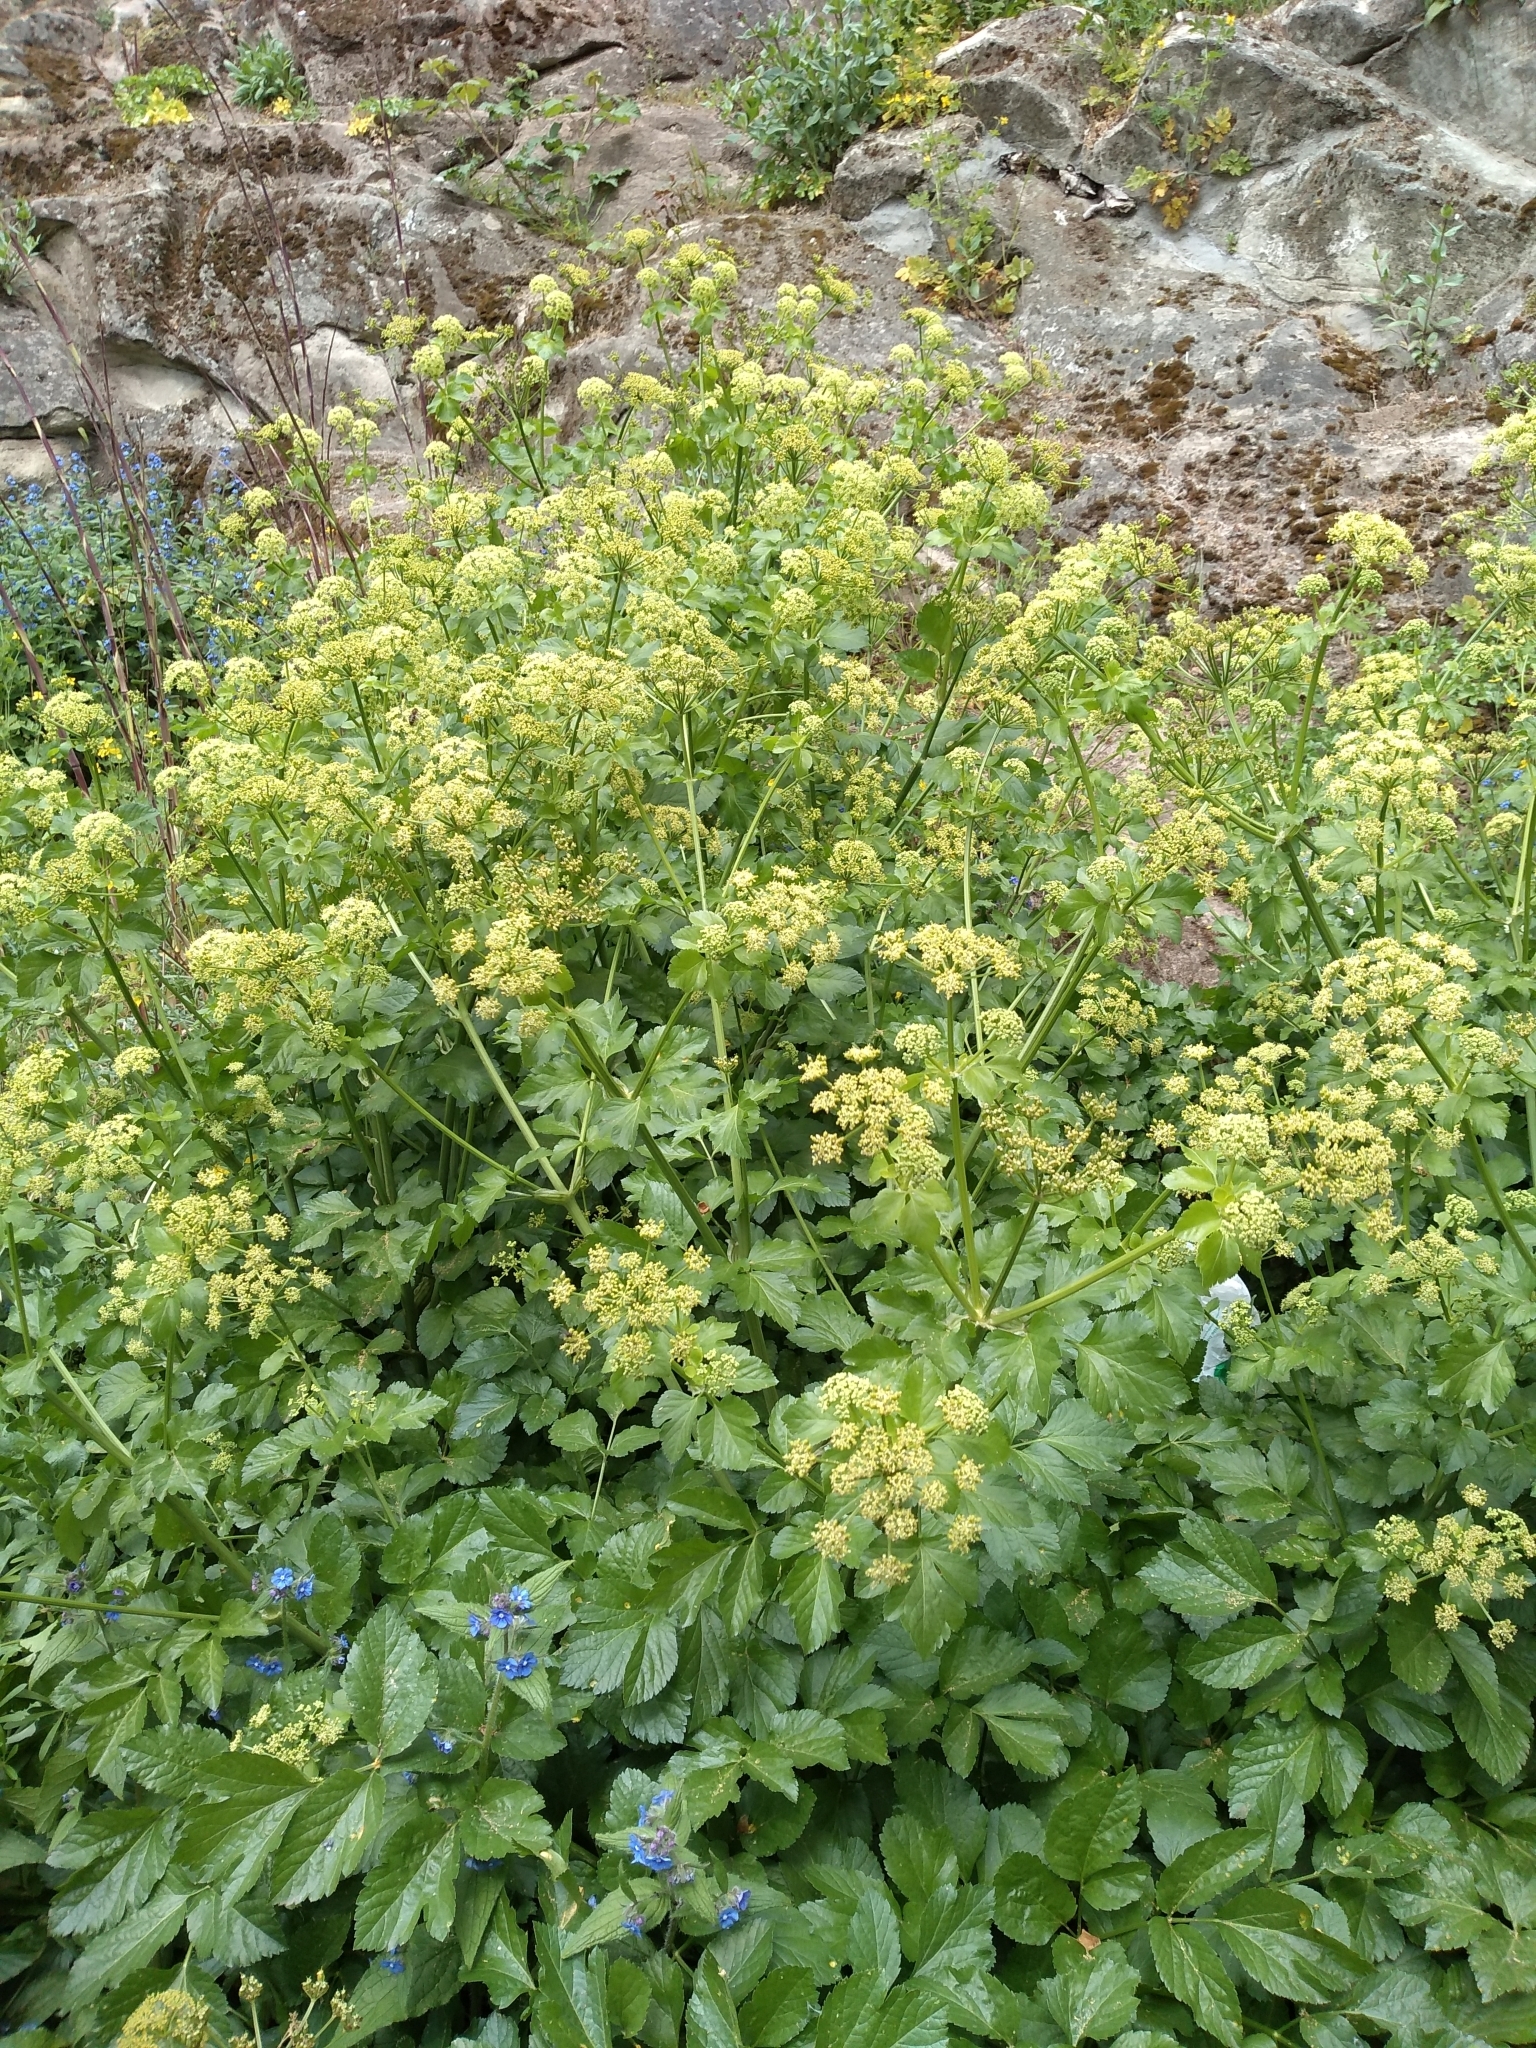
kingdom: Plantae
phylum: Tracheophyta
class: Magnoliopsida
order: Apiales
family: Apiaceae
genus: Smyrnium
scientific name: Smyrnium olusatrum
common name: Alexanders
